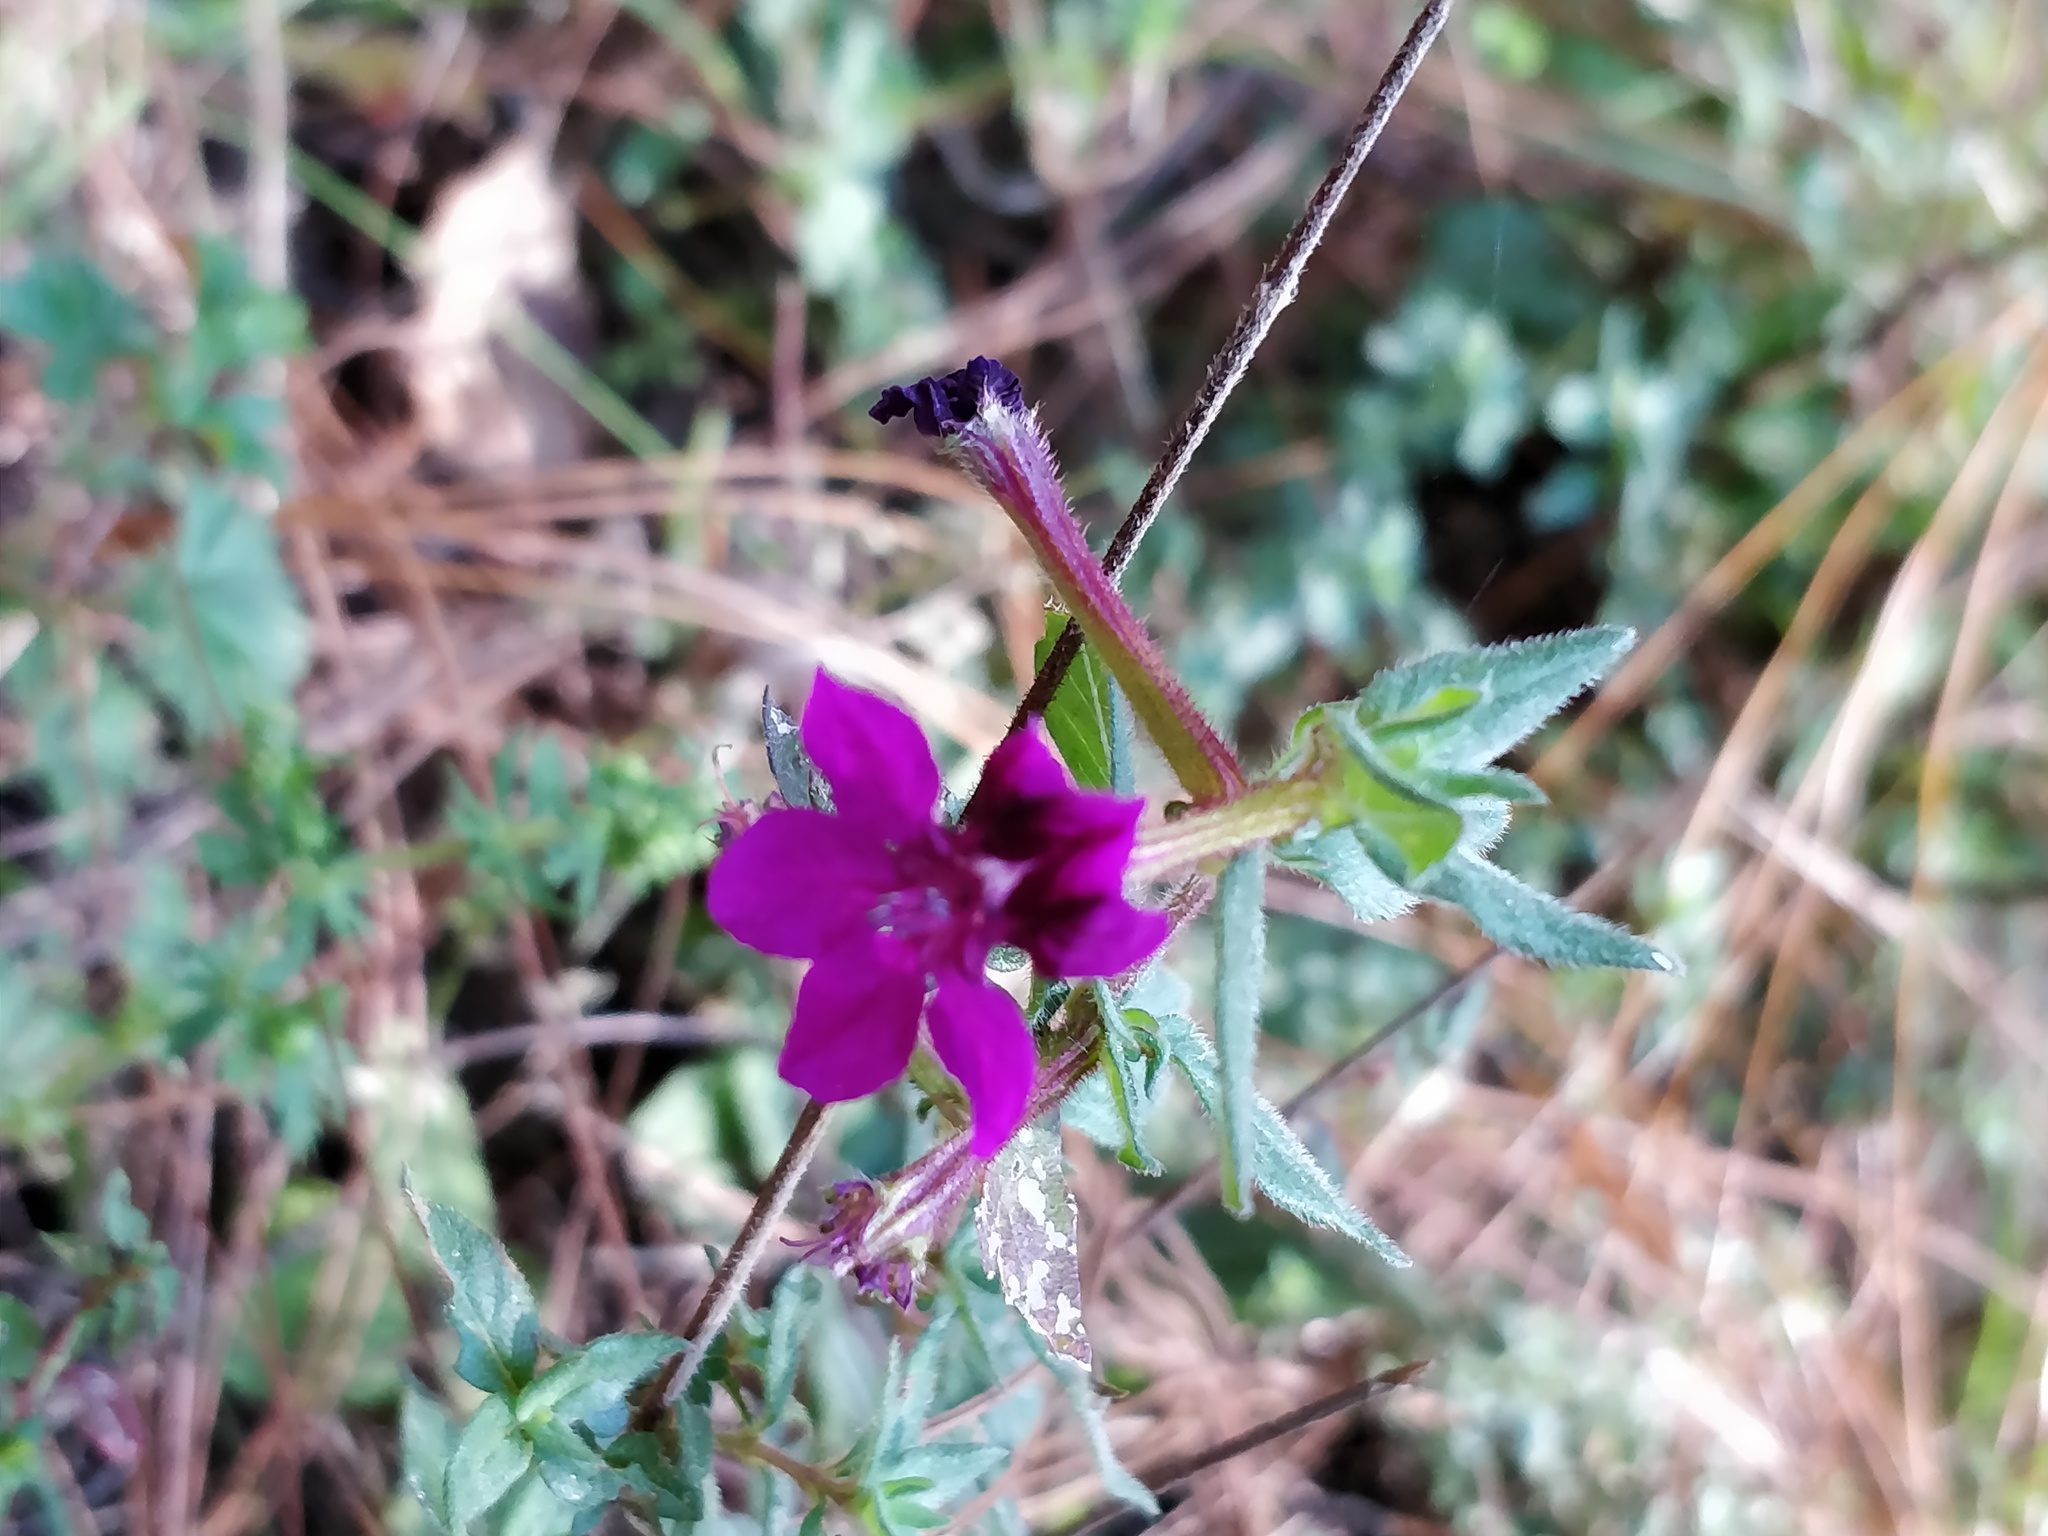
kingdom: Plantae
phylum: Tracheophyta
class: Magnoliopsida
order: Myrtales
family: Lythraceae
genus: Cuphea
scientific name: Cuphea aequipetala
